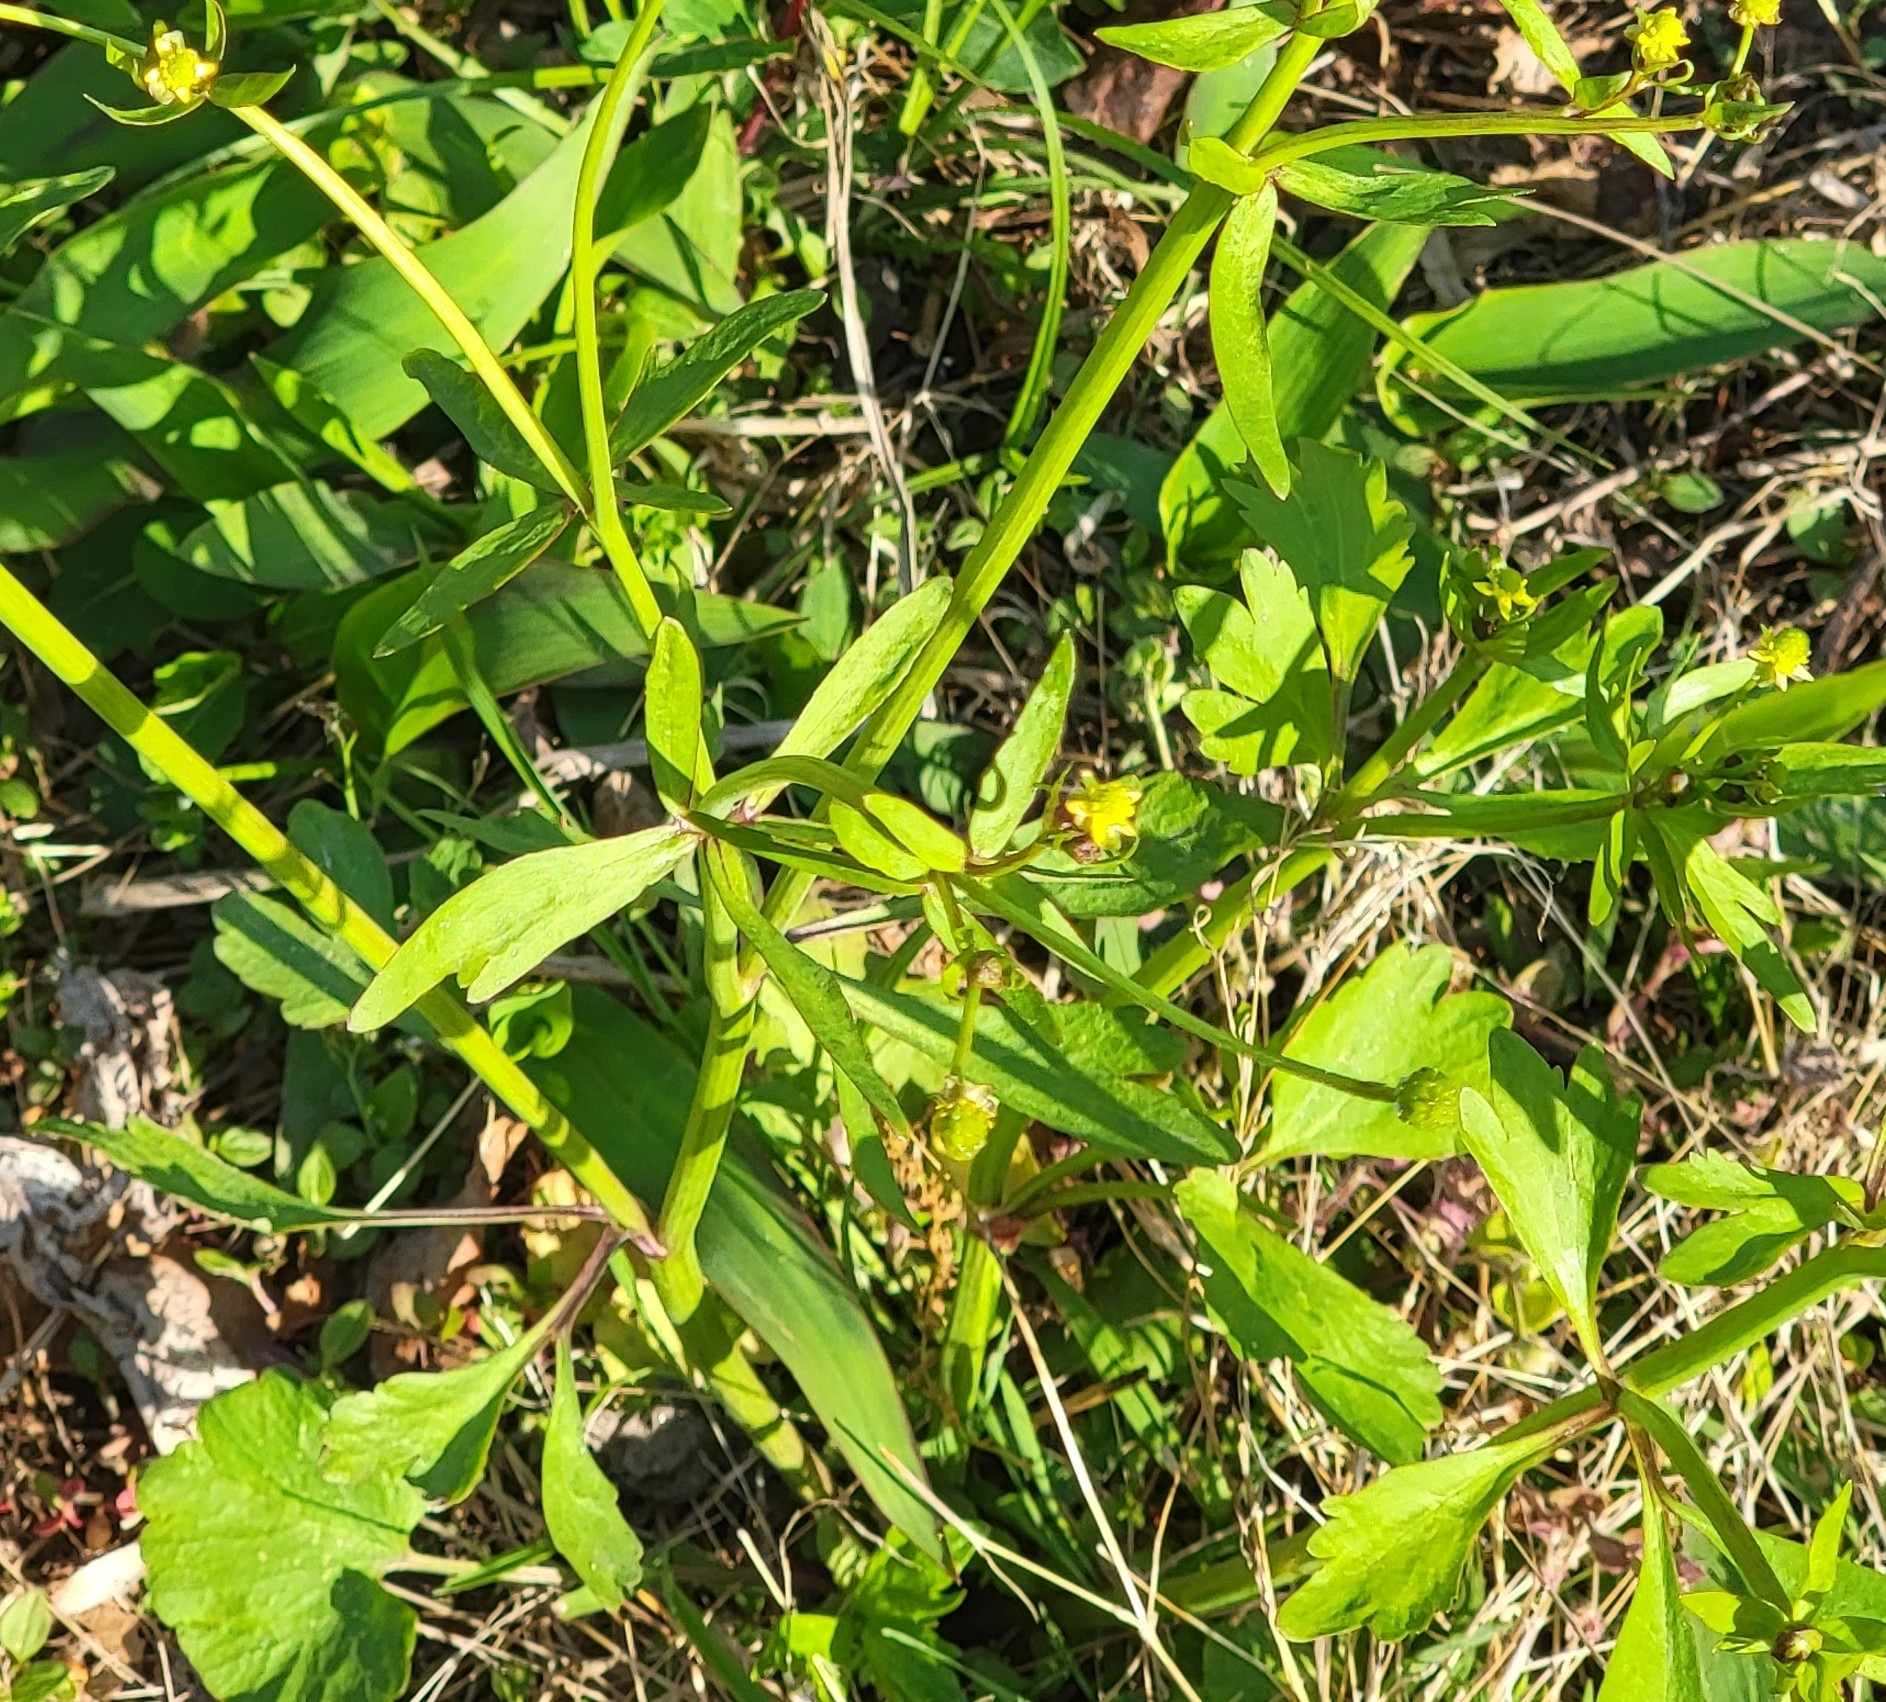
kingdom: Plantae
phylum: Tracheophyta
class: Magnoliopsida
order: Ranunculales
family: Ranunculaceae
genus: Ranunculus
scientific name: Ranunculus abortivus
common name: Early wood buttercup
